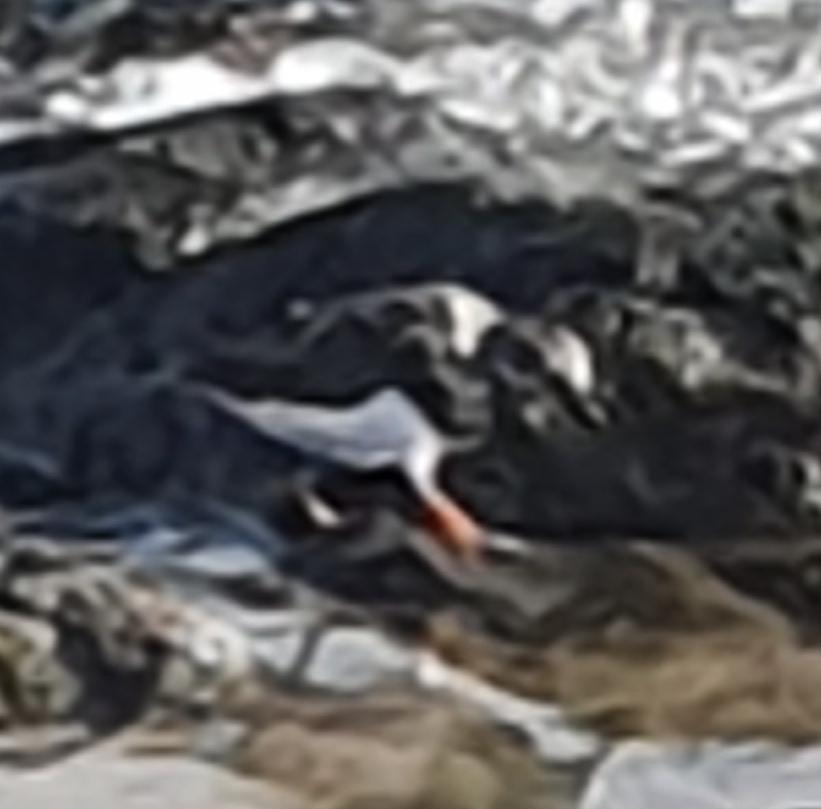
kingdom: Animalia
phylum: Chordata
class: Aves
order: Charadriiformes
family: Scolopacidae
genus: Arenaria
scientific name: Arenaria interpres
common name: Ruddy turnstone
